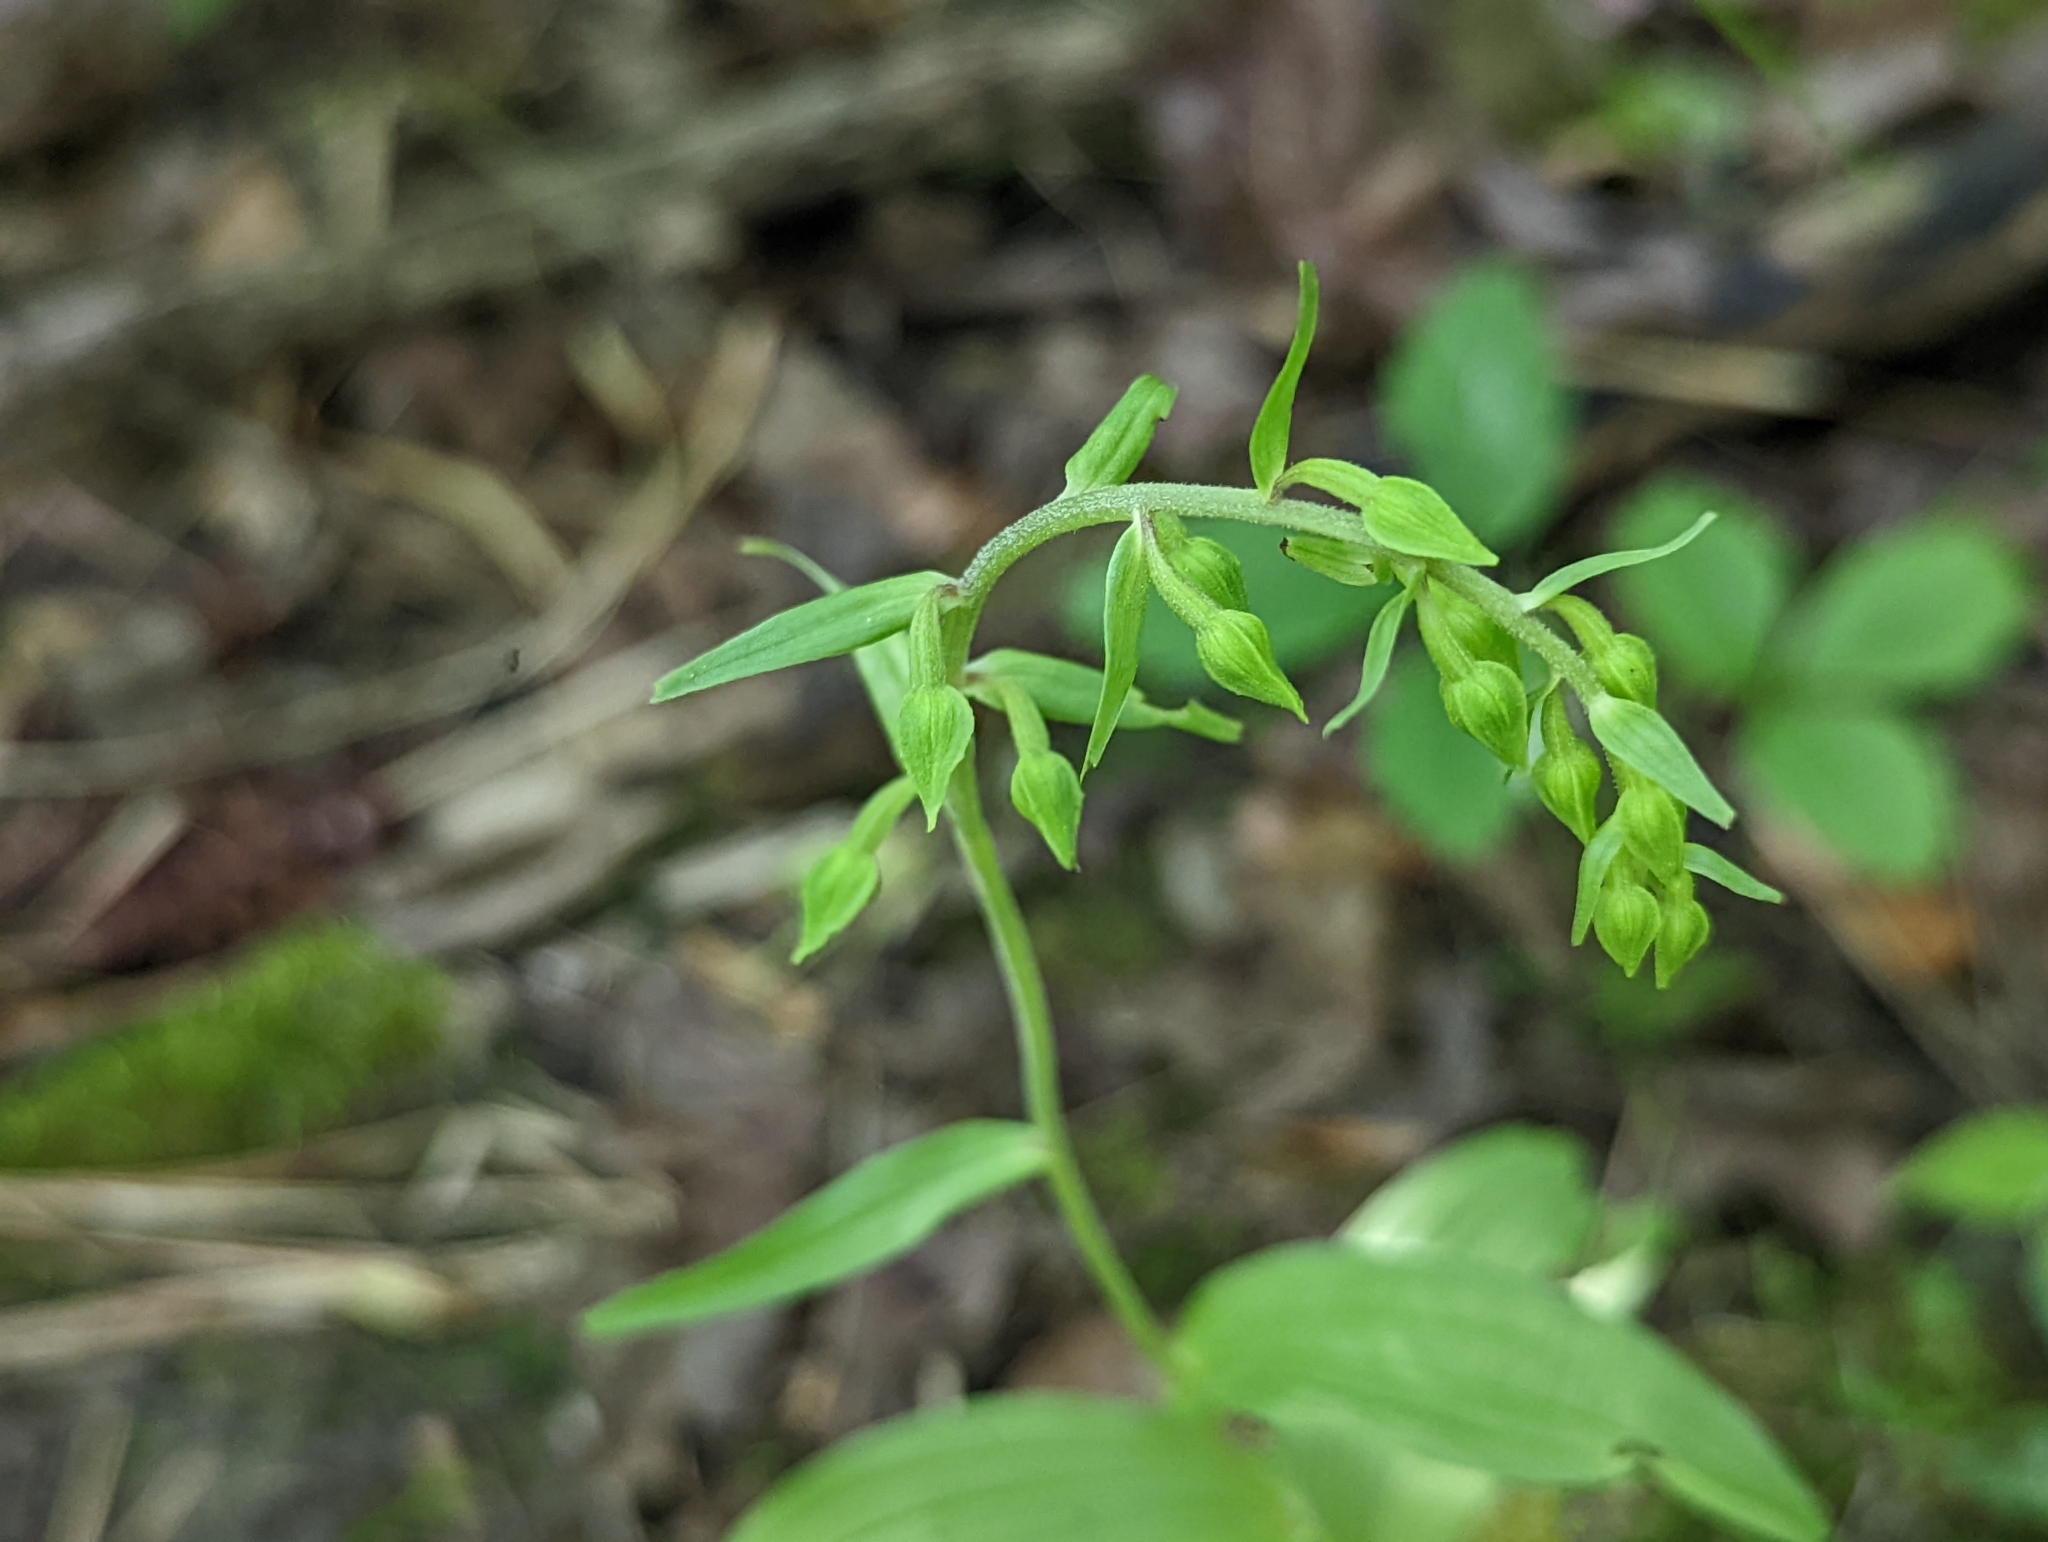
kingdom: Plantae
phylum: Tracheophyta
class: Liliopsida
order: Asparagales
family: Orchidaceae
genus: Epipactis
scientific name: Epipactis helleborine
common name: Broad-leaved helleborine
